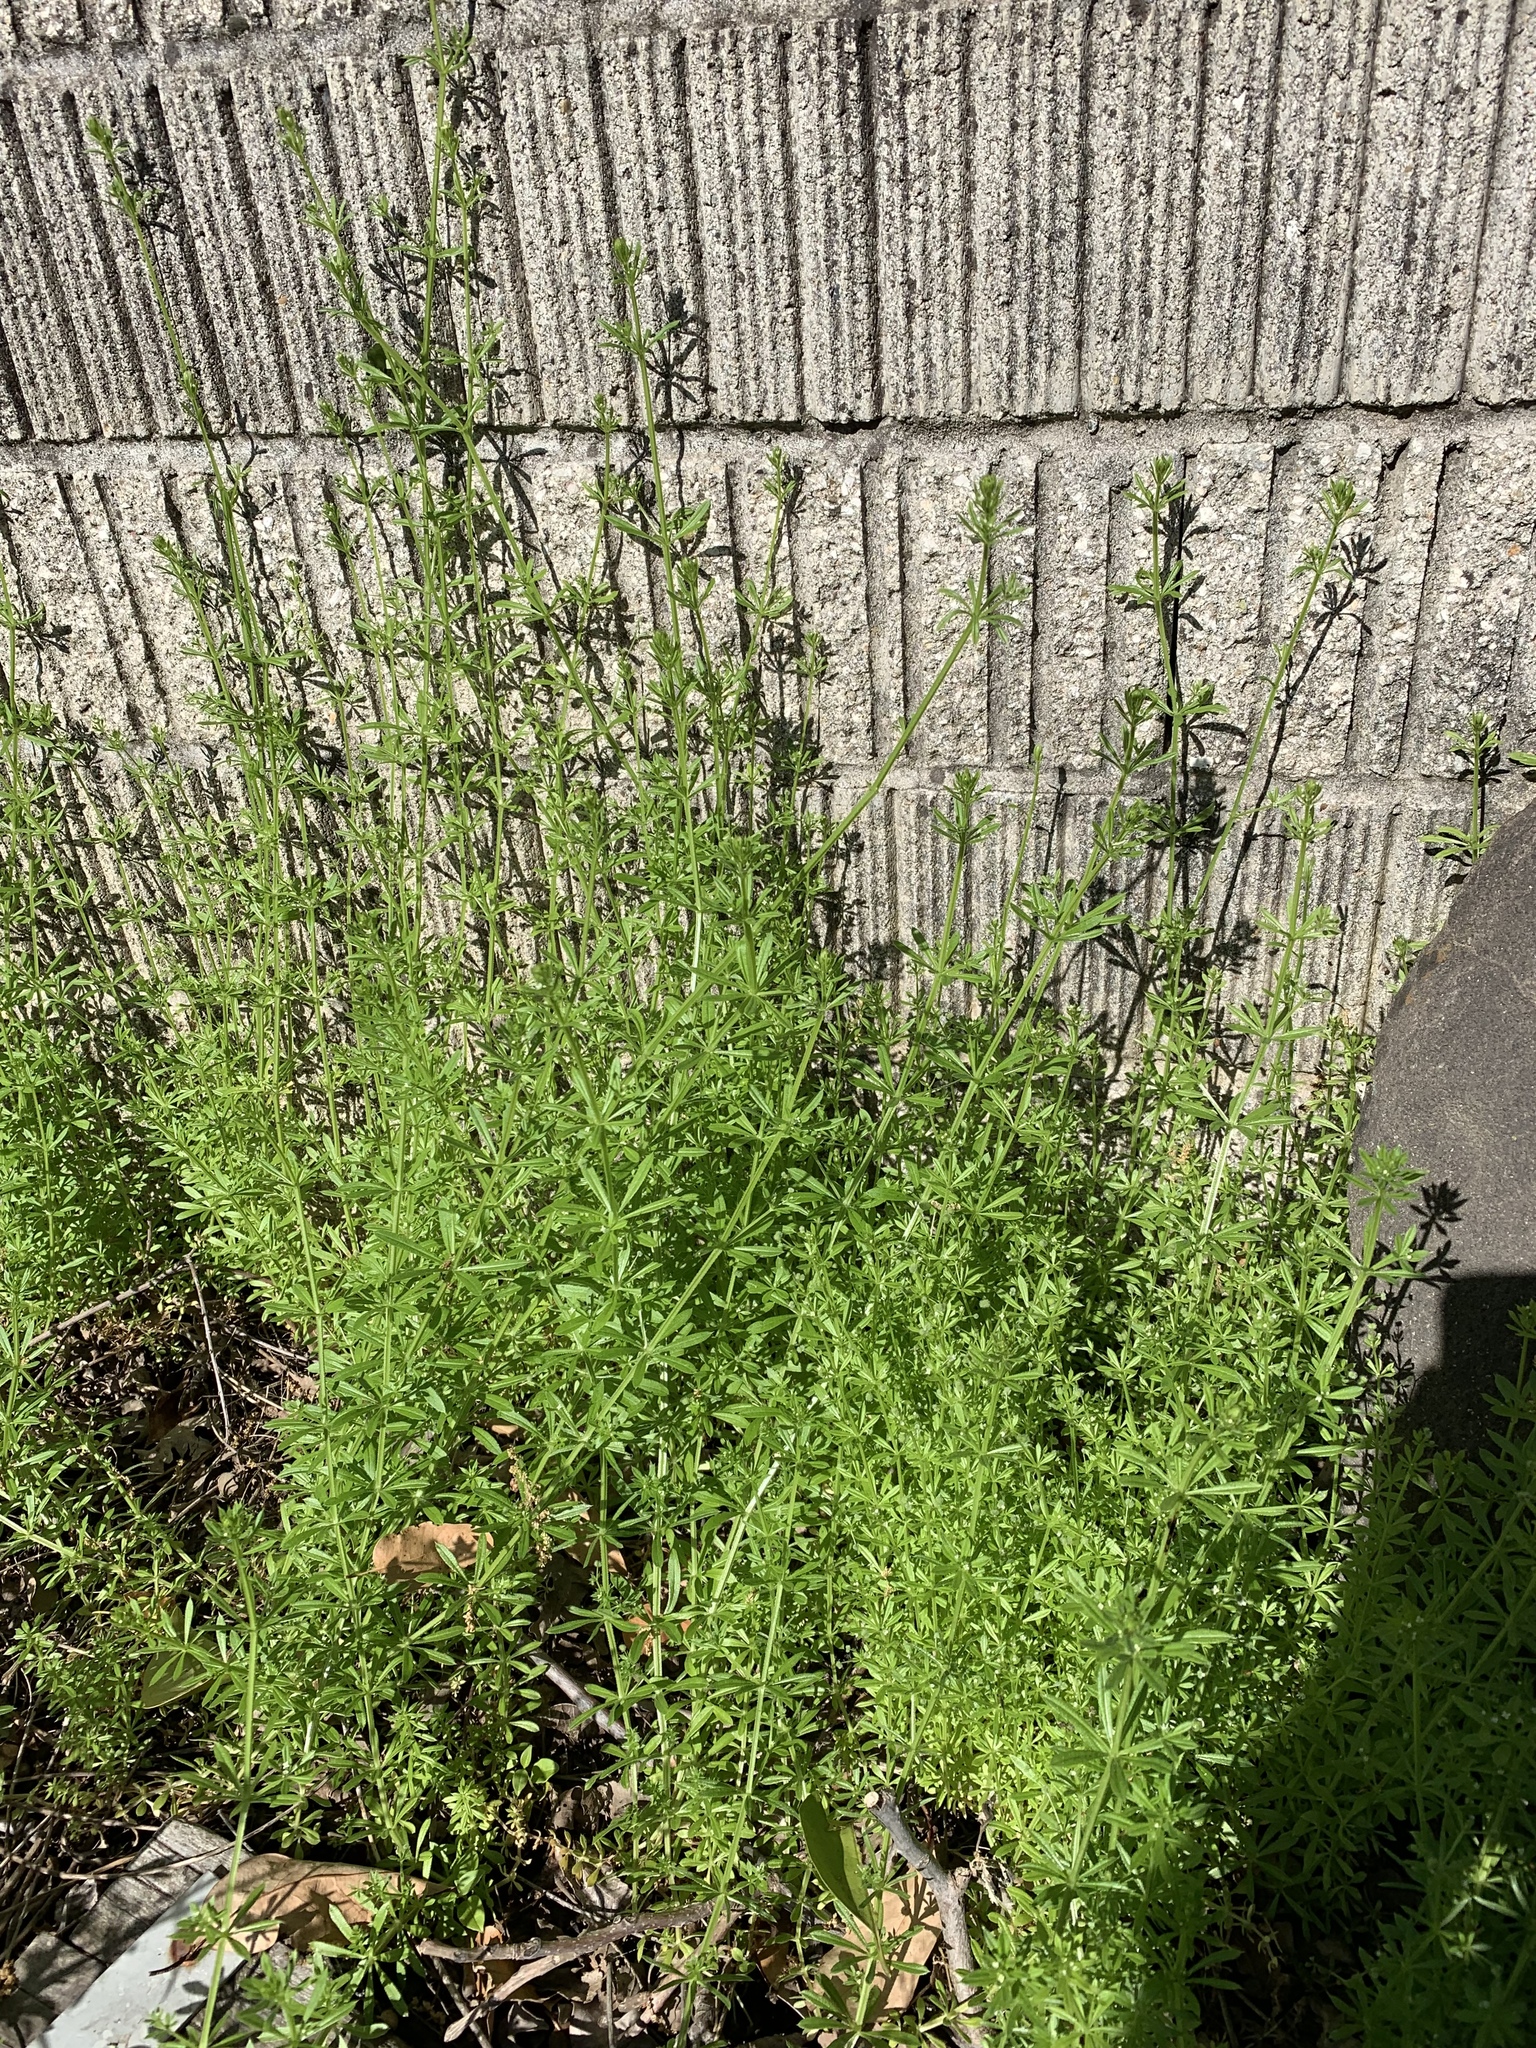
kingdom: Plantae
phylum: Tracheophyta
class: Magnoliopsida
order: Gentianales
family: Rubiaceae
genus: Galium
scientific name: Galium aparine
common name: Cleavers
